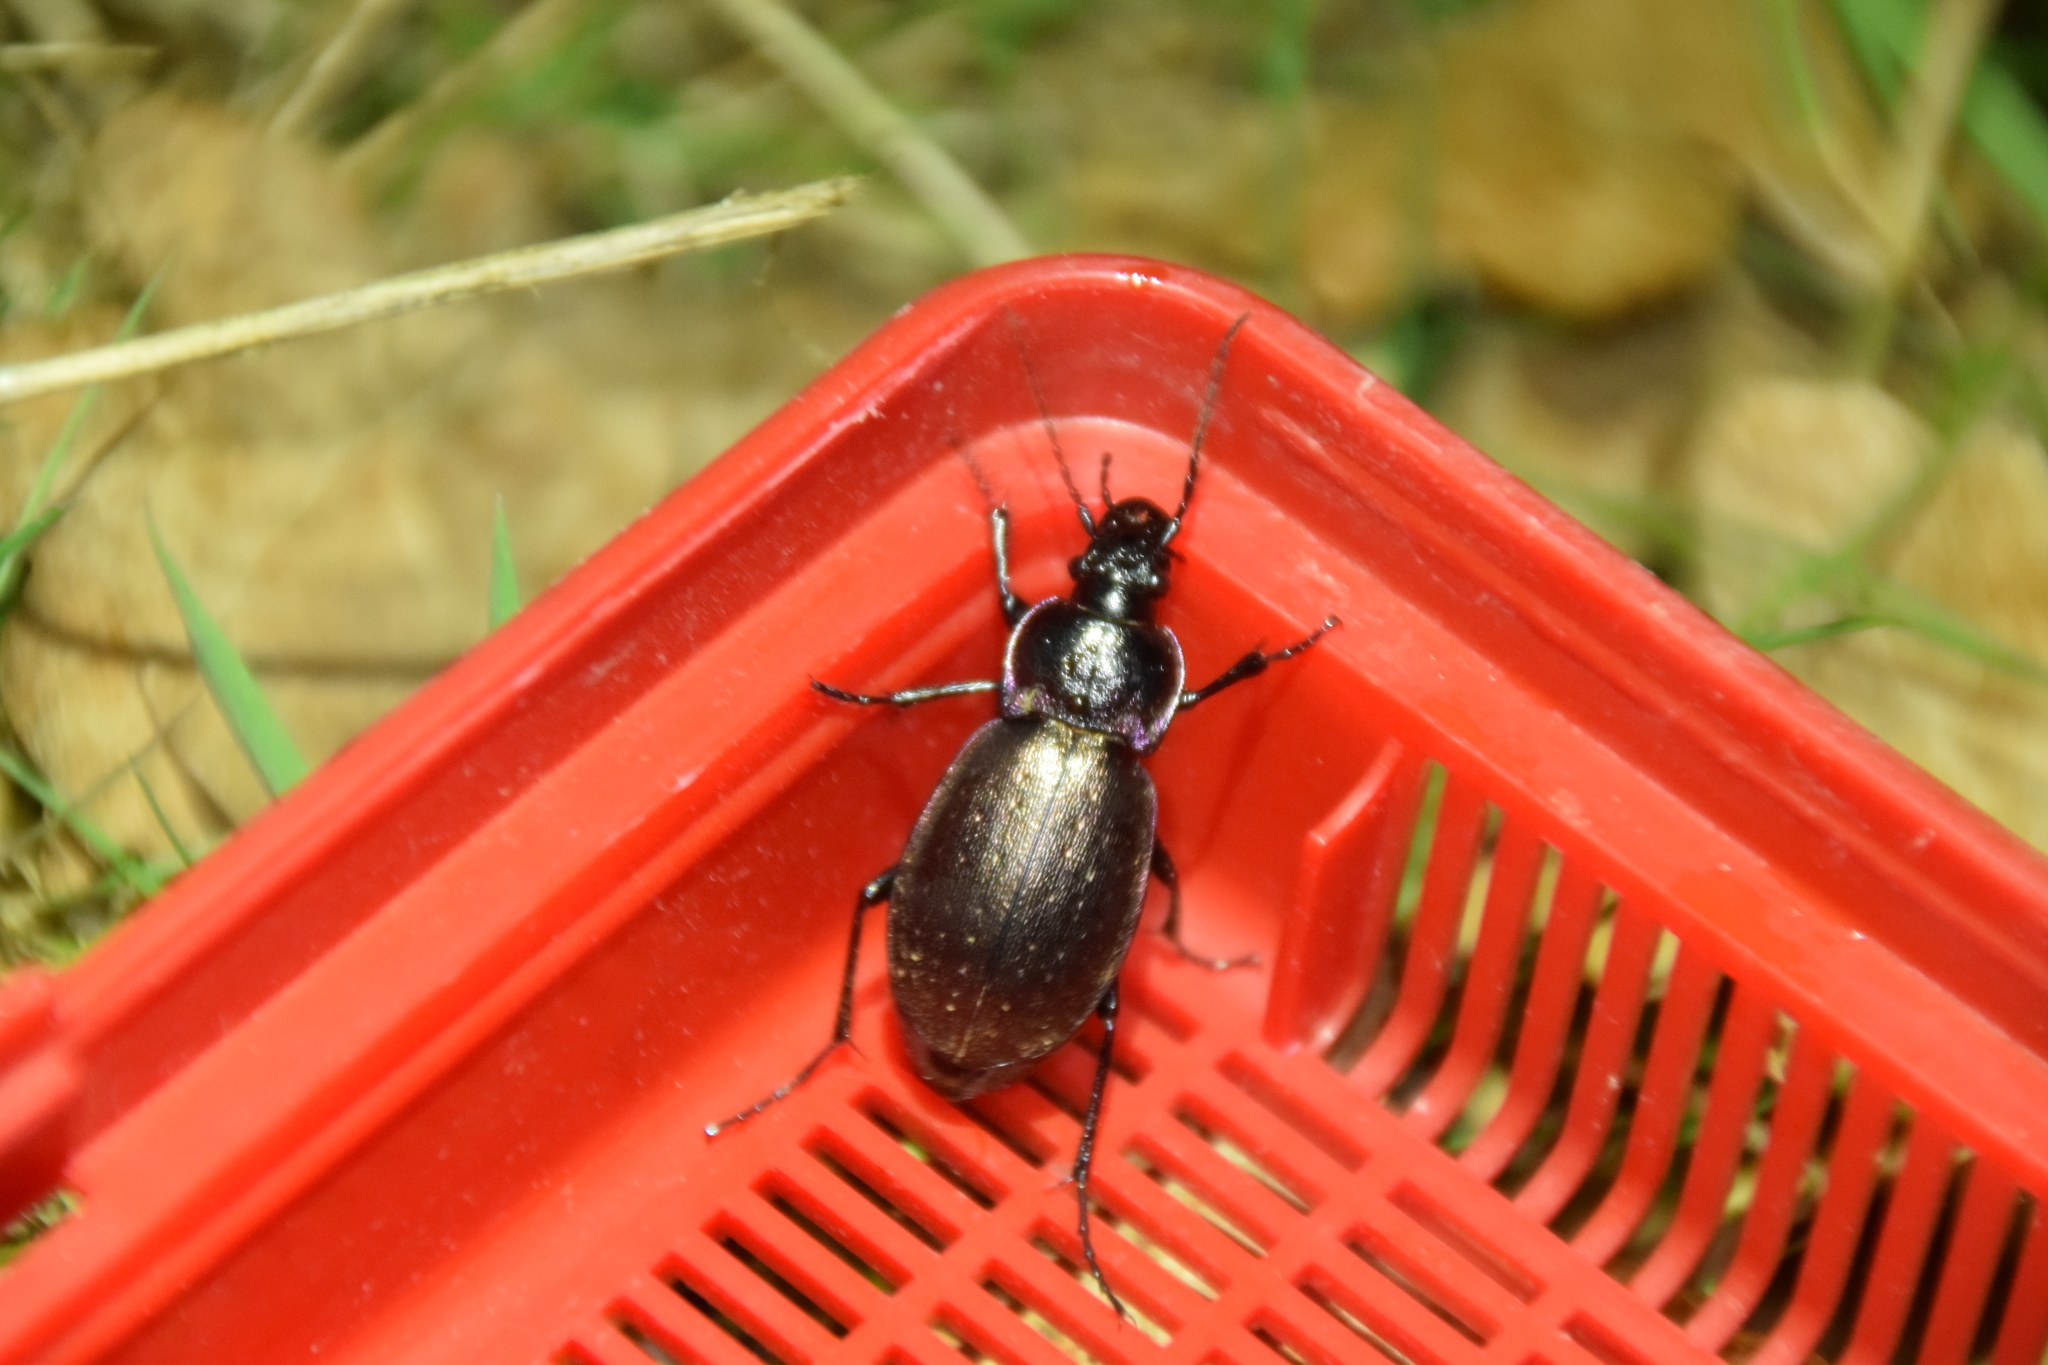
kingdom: Animalia
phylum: Arthropoda
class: Insecta
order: Coleoptera
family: Carabidae
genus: Carabus
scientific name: Carabus nemoralis
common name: European ground beetle
